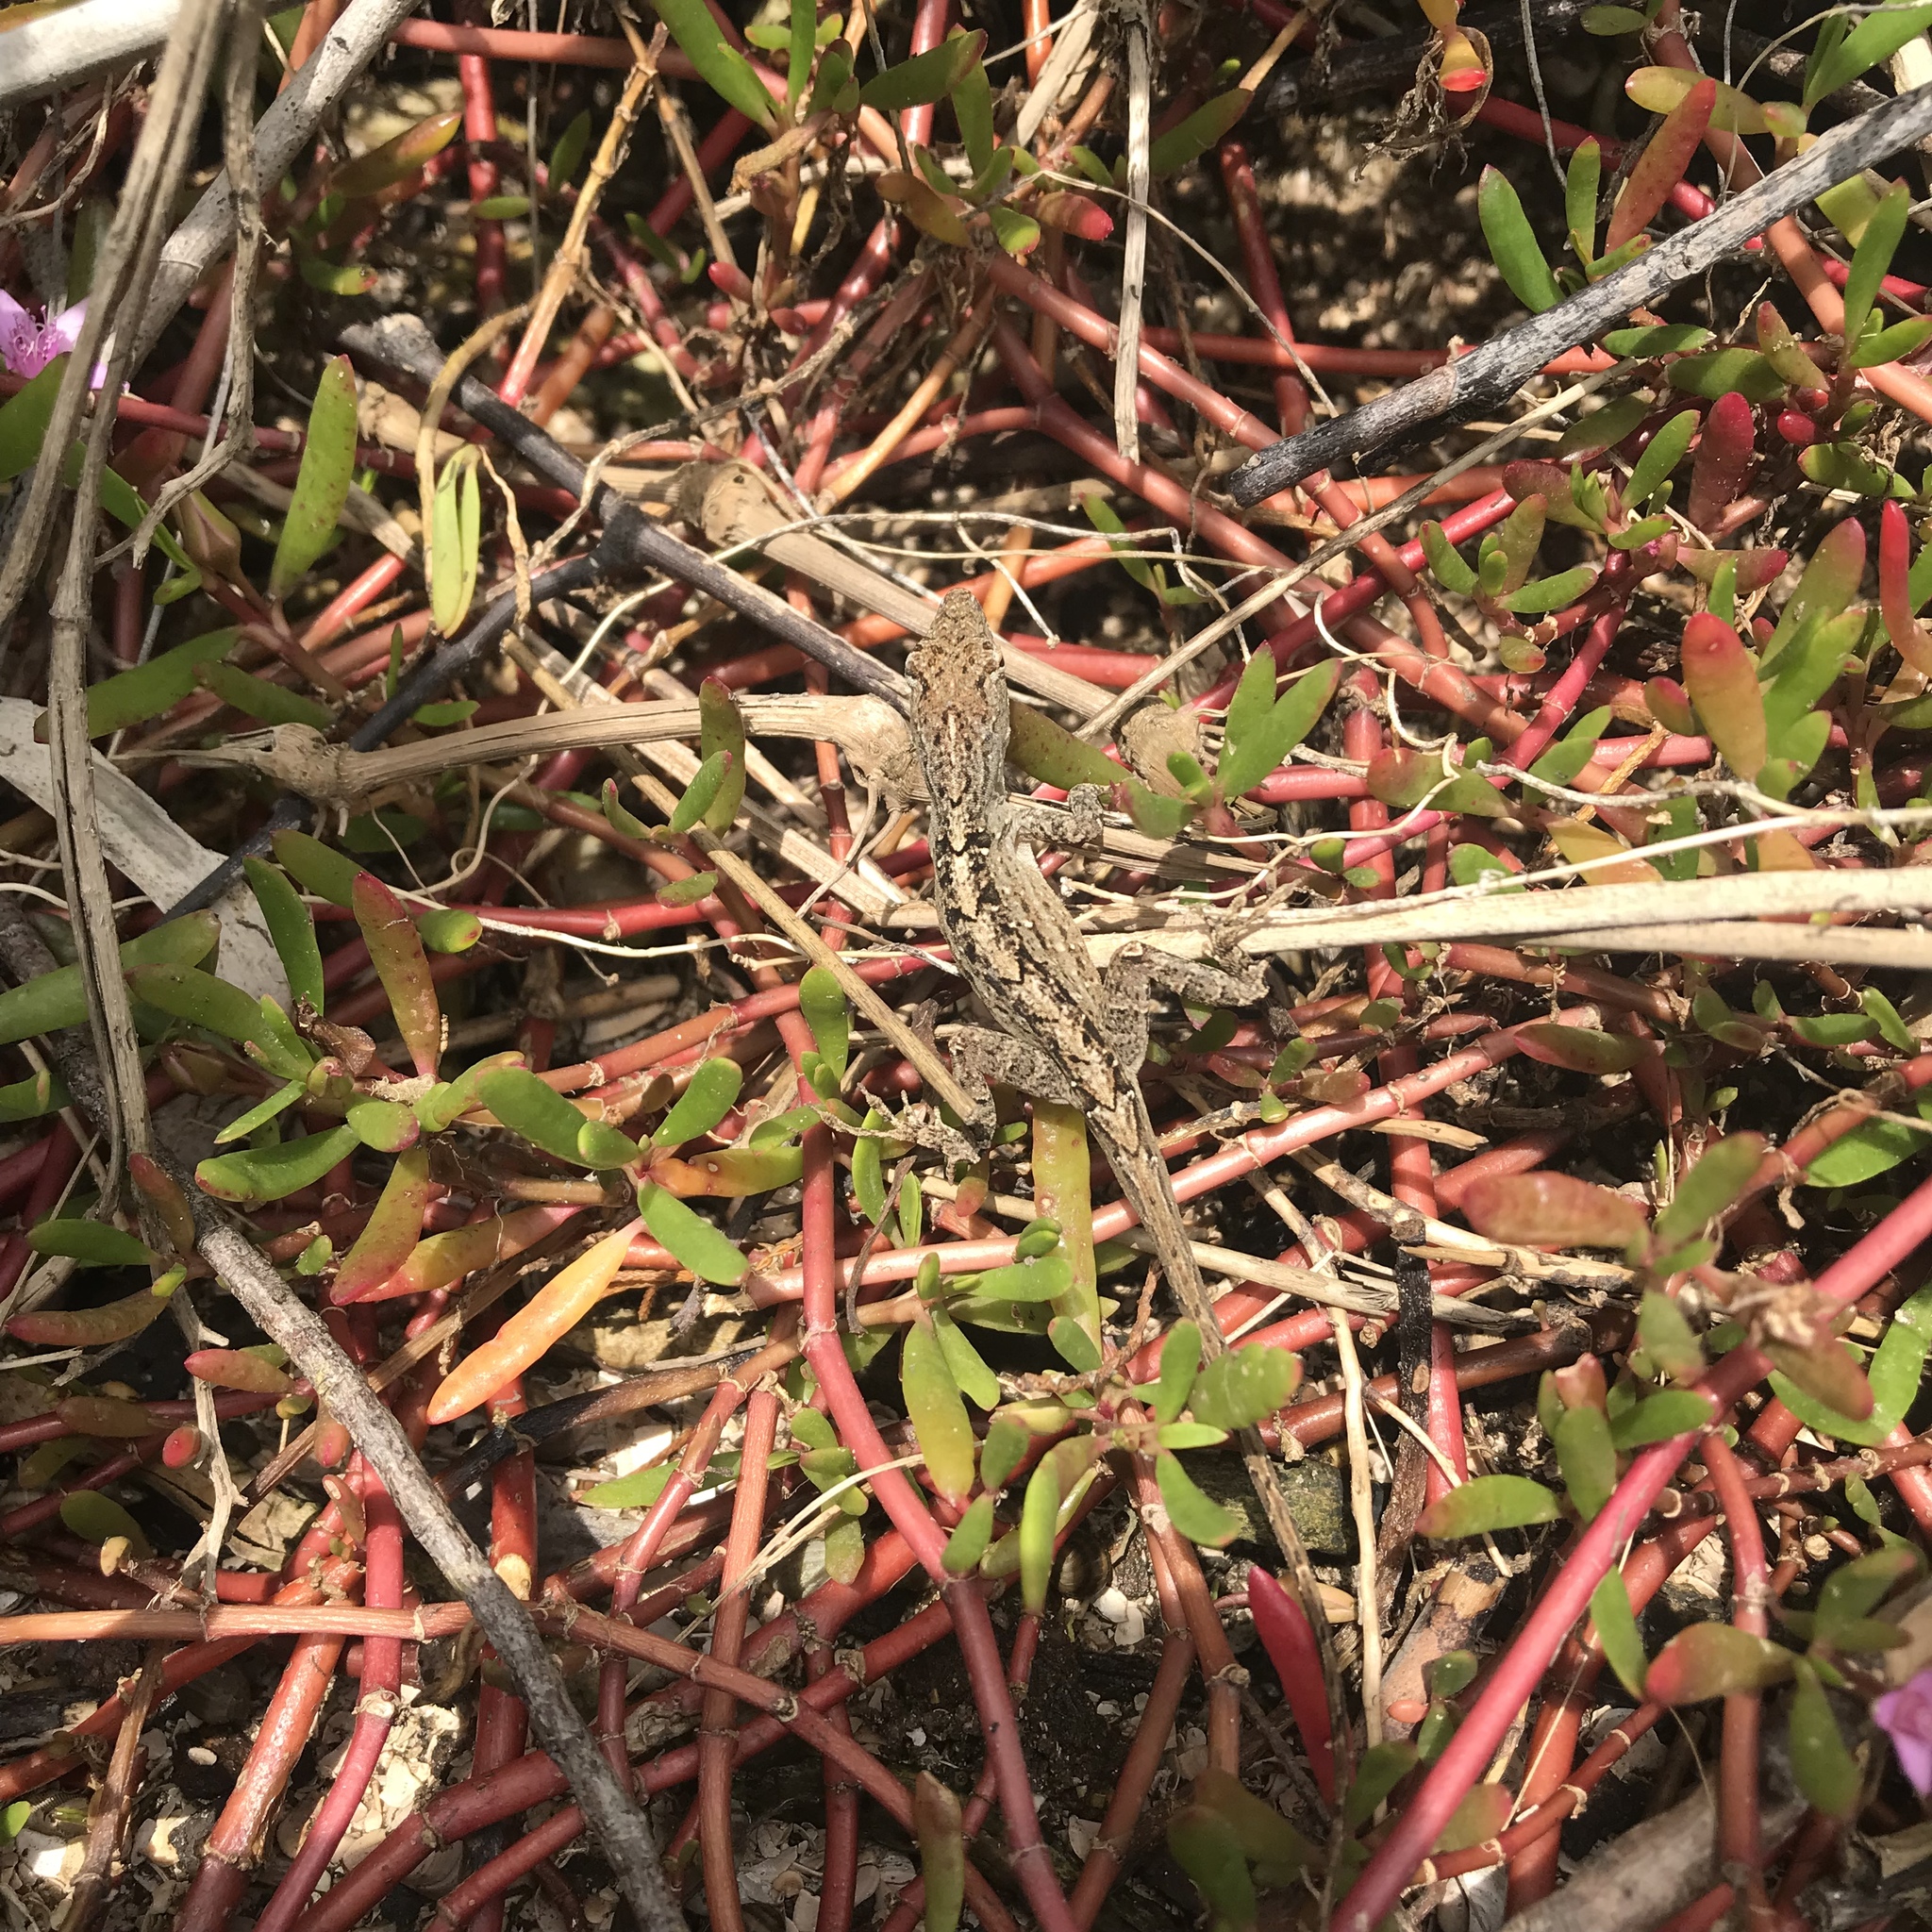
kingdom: Animalia
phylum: Chordata
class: Squamata
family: Dactyloidae
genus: Anolis
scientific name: Anolis sagrei
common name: Brown anole
